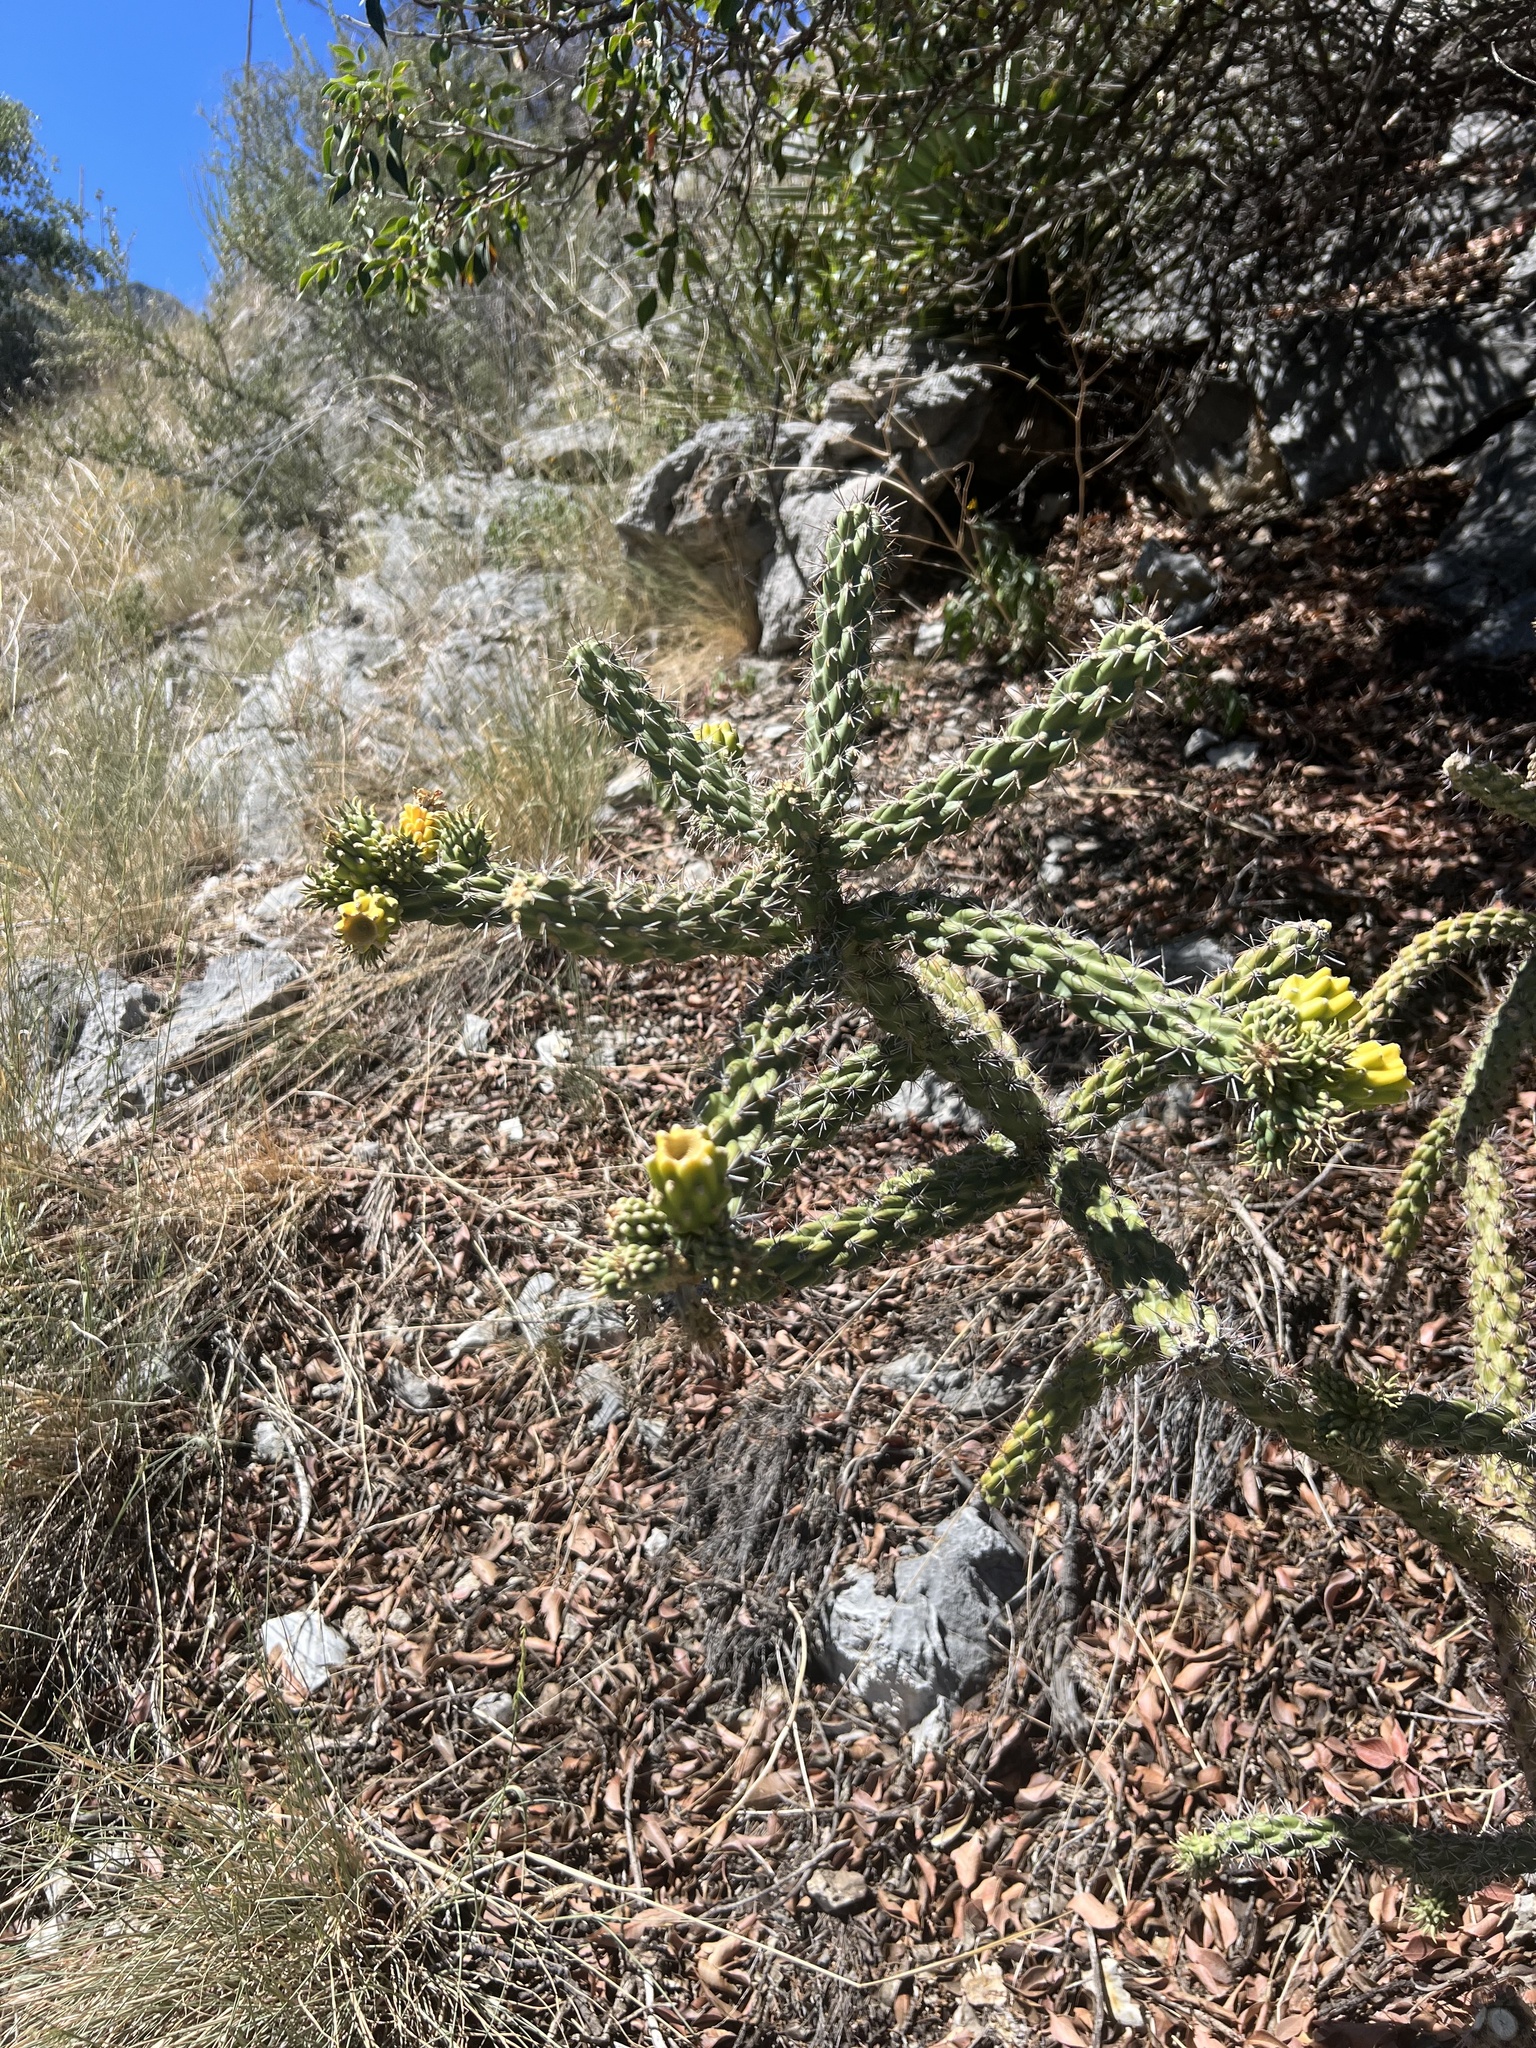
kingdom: Plantae
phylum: Tracheophyta
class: Magnoliopsida
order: Caryophyllales
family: Cactaceae
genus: Cylindropuntia
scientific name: Cylindropuntia imbricata
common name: Candelabrum cactus
